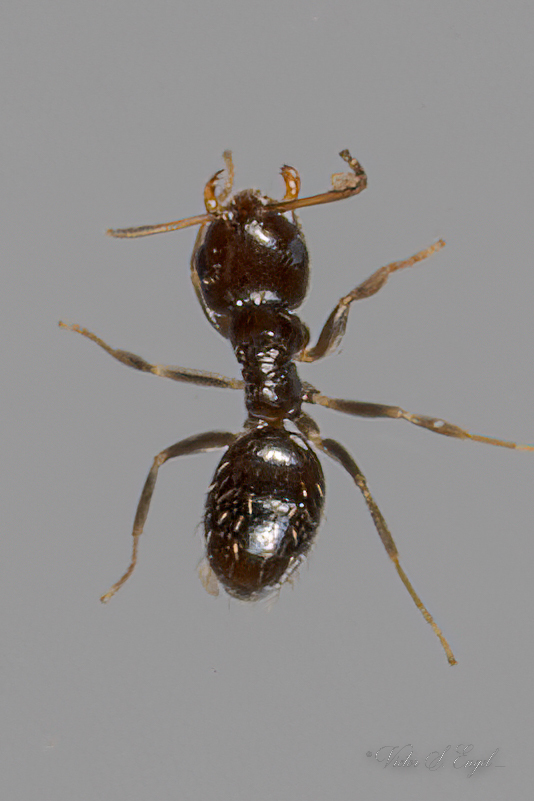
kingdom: Animalia
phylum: Arthropoda
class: Insecta
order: Hymenoptera
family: Formicidae
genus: Brachymyrmex
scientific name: Brachymyrmex patagonicus
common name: Dark rover ant
